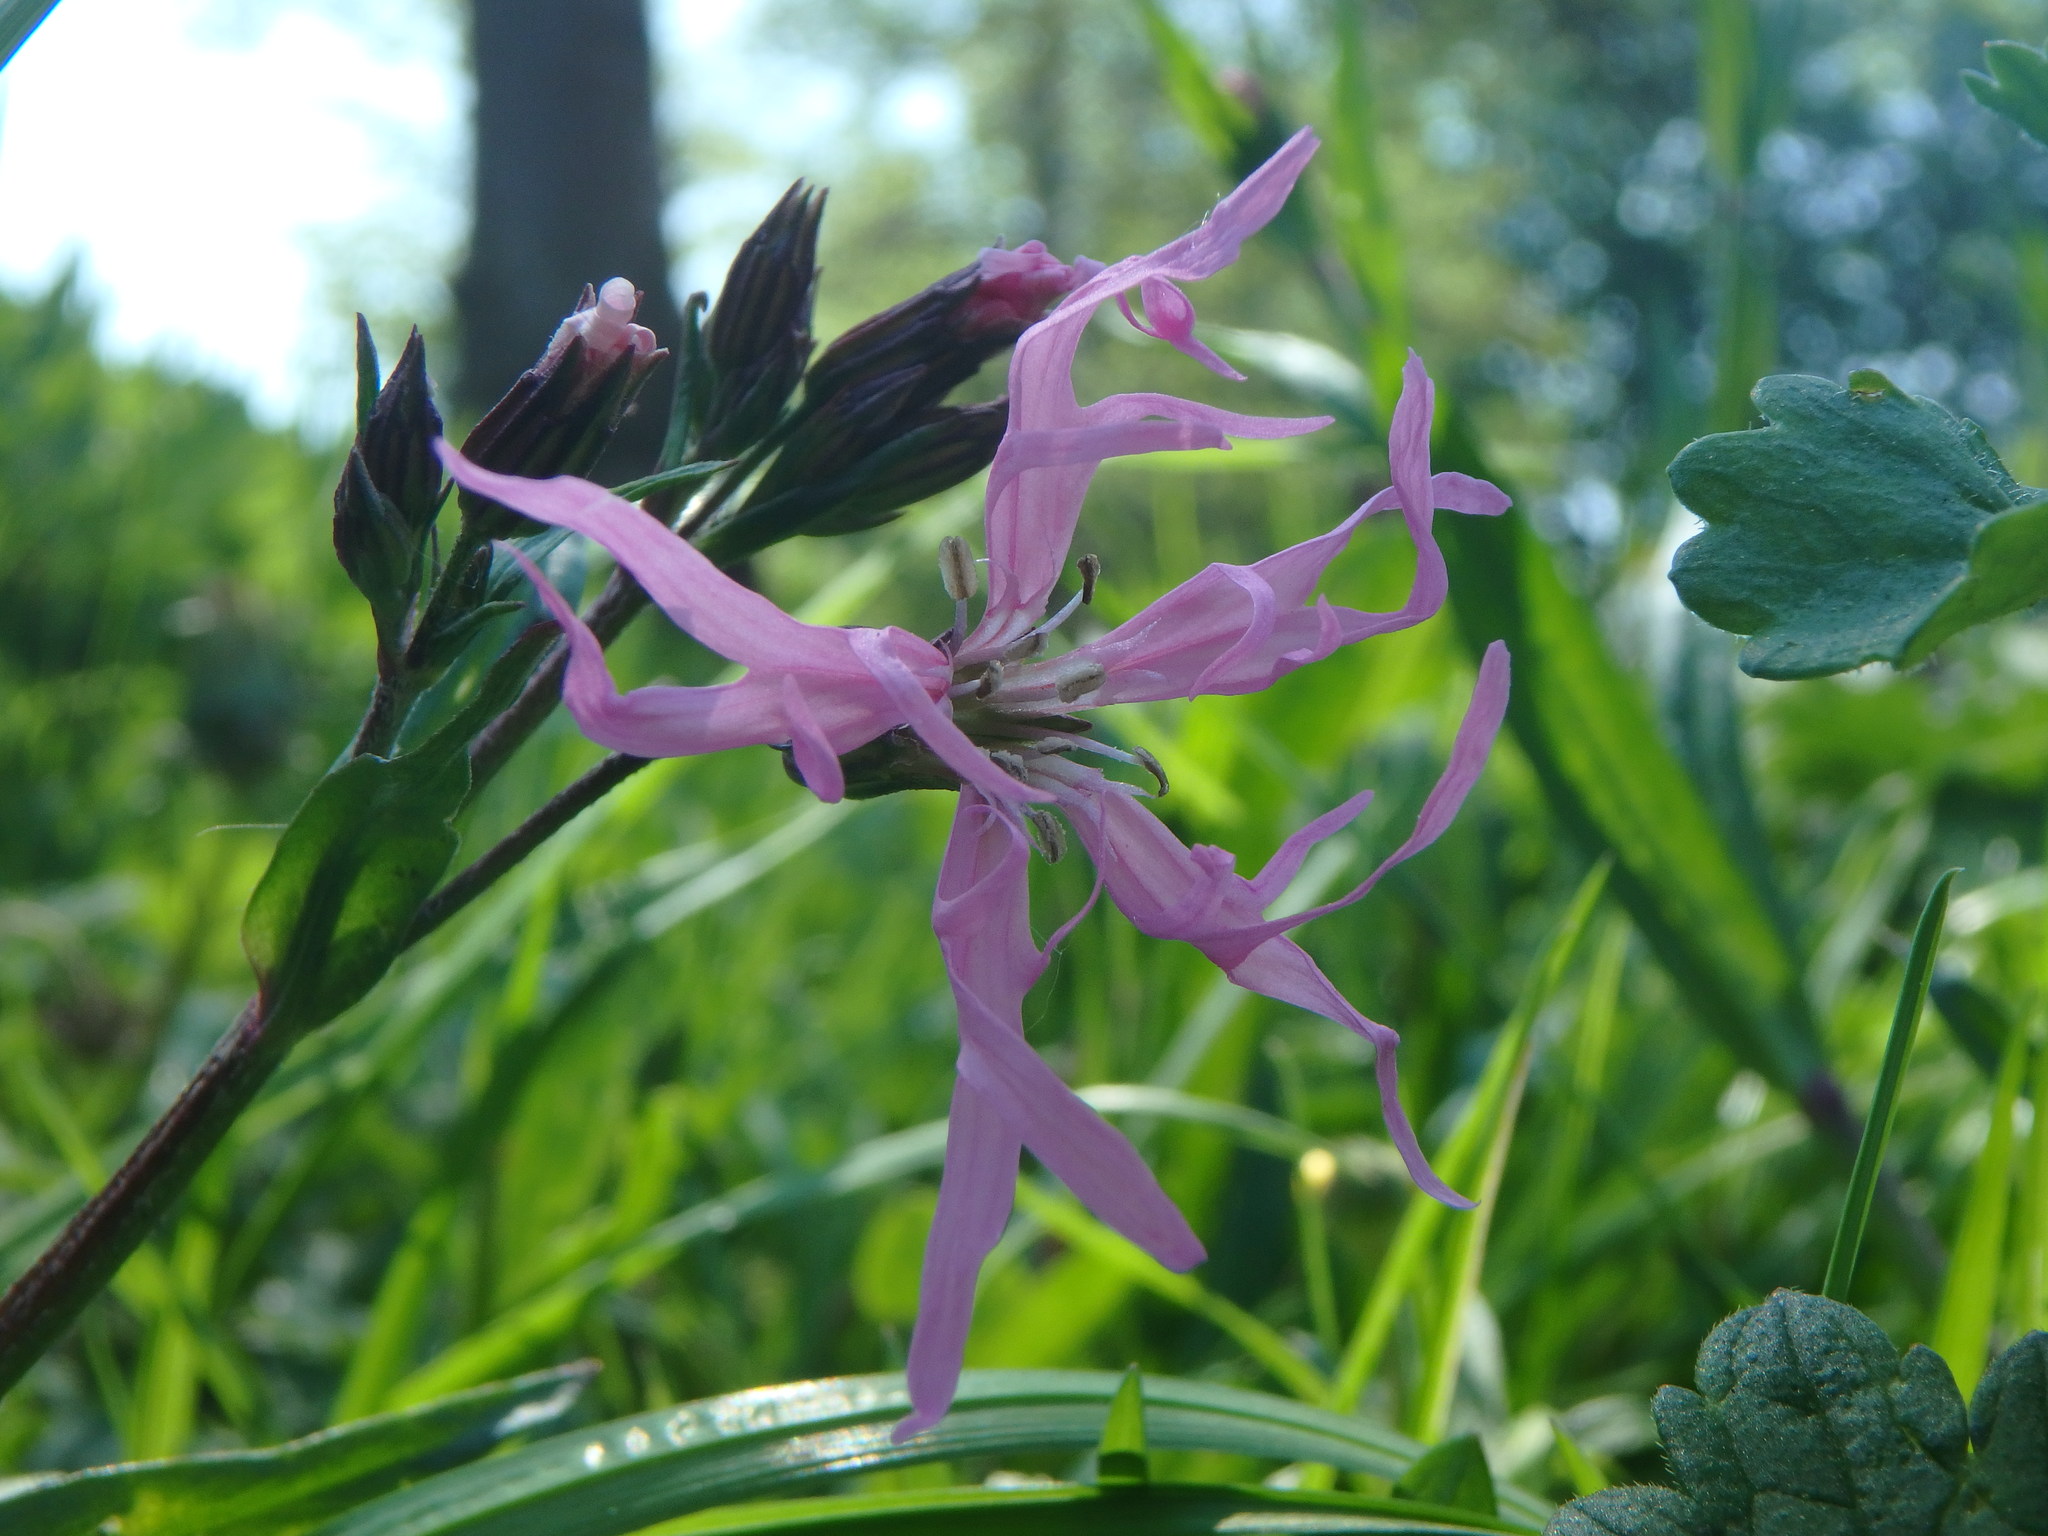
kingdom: Plantae
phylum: Tracheophyta
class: Magnoliopsida
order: Caryophyllales
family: Caryophyllaceae
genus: Silene
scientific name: Silene flos-cuculi
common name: Ragged-robin
